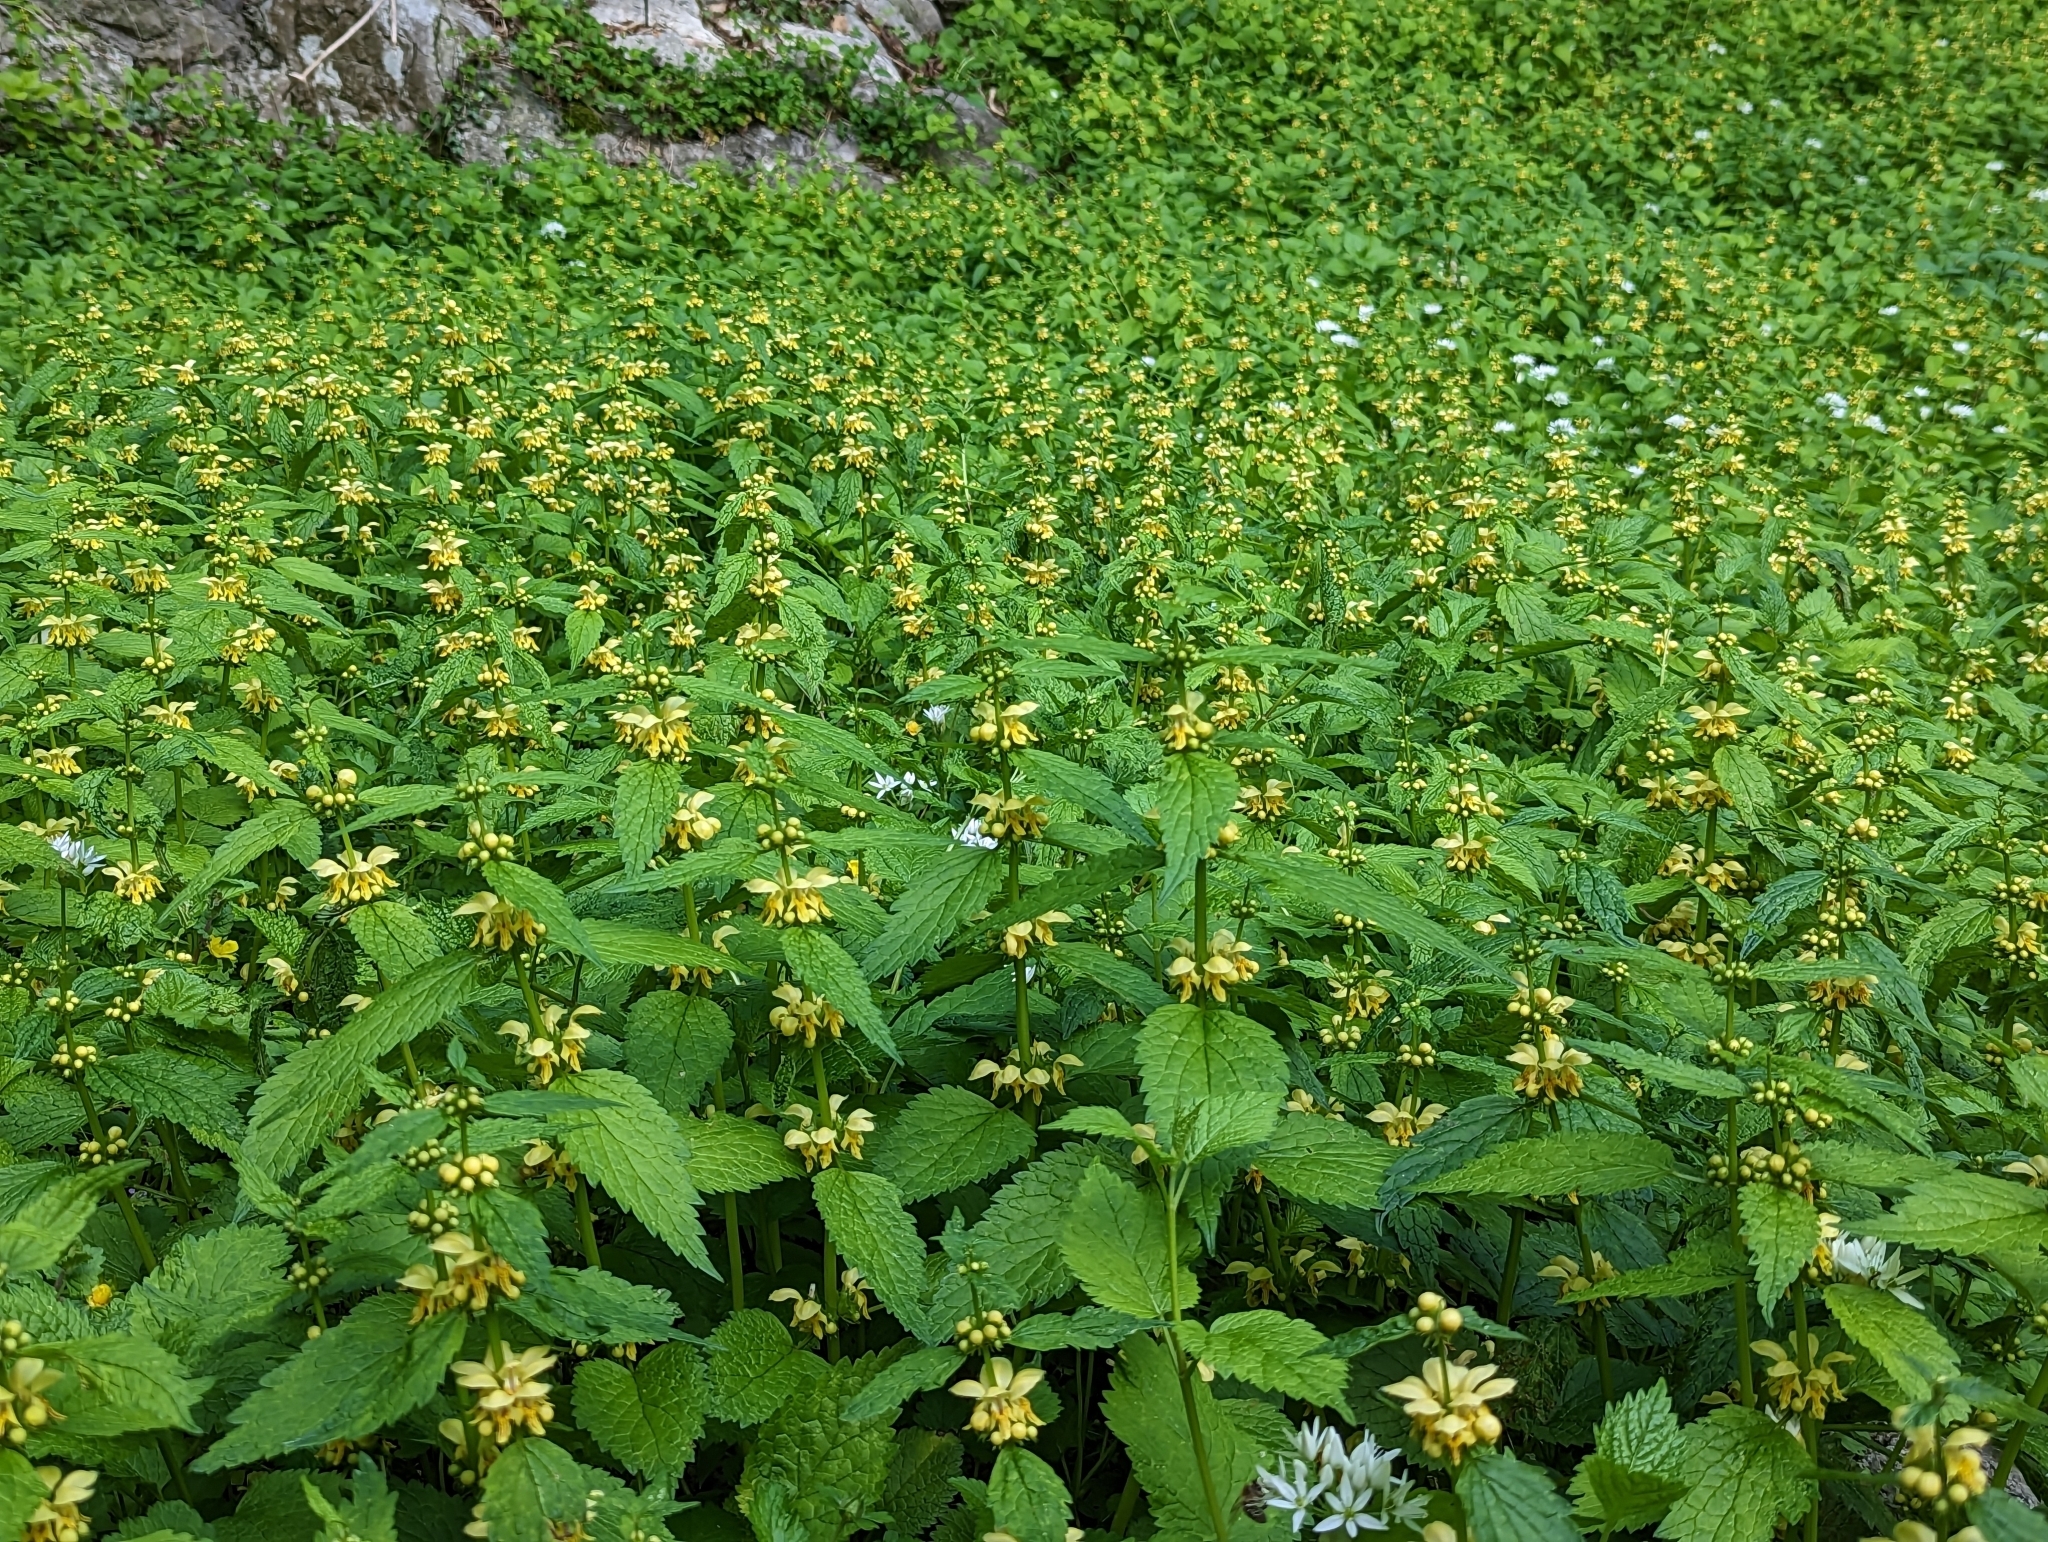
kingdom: Plantae
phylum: Tracheophyta
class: Magnoliopsida
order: Lamiales
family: Lamiaceae
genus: Lamium
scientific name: Lamium galeobdolon
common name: Yellow archangel
